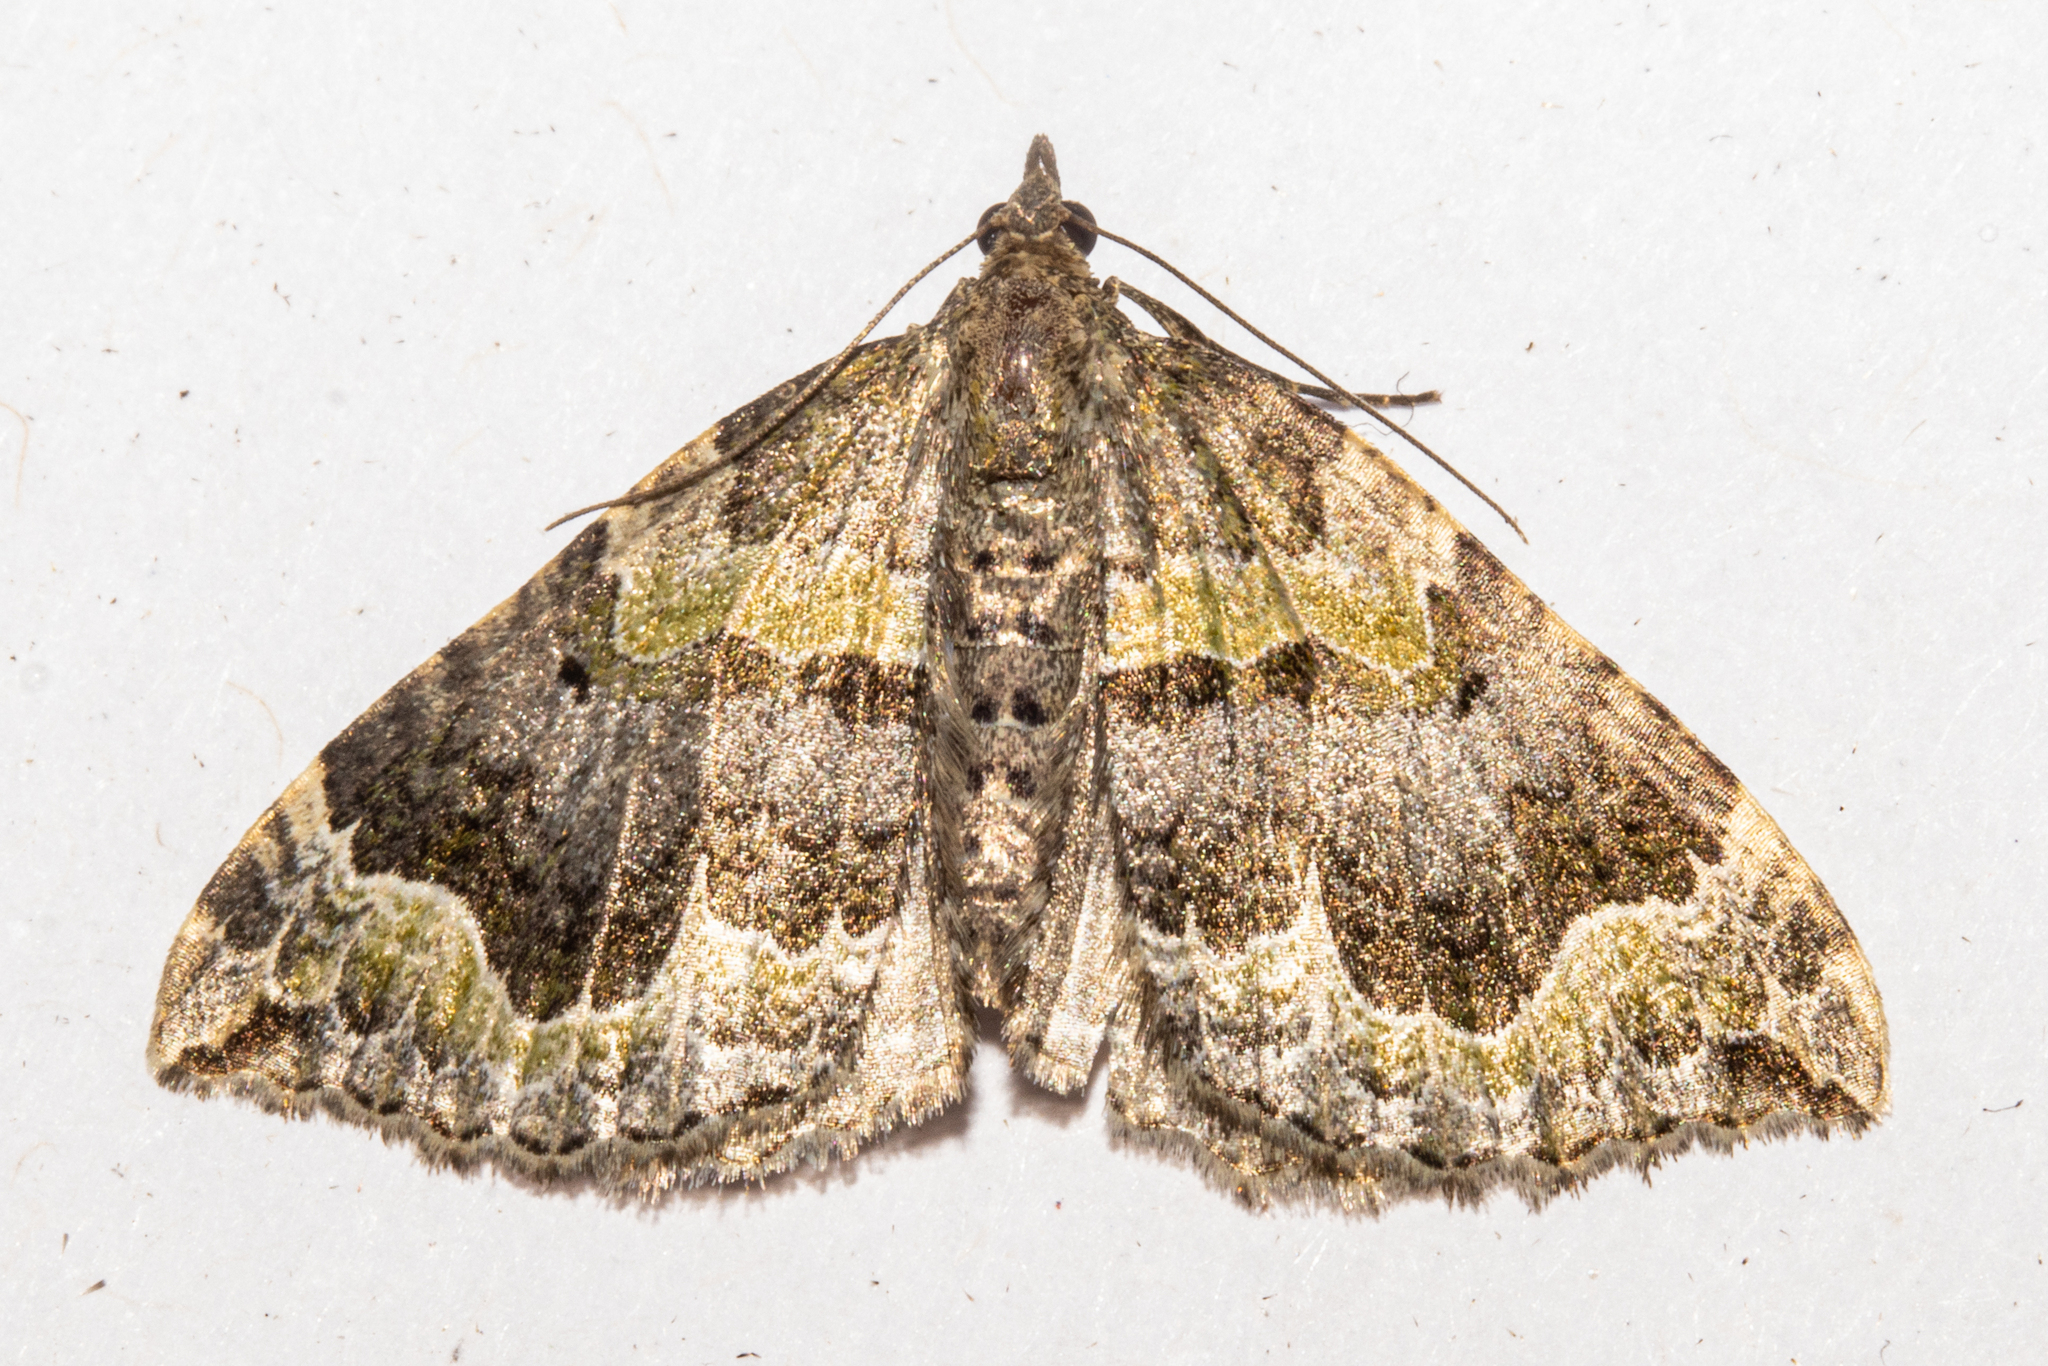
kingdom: Animalia
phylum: Arthropoda
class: Insecta
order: Lepidoptera
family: Geometridae
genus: Hydriomena
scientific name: Hydriomena rixata
